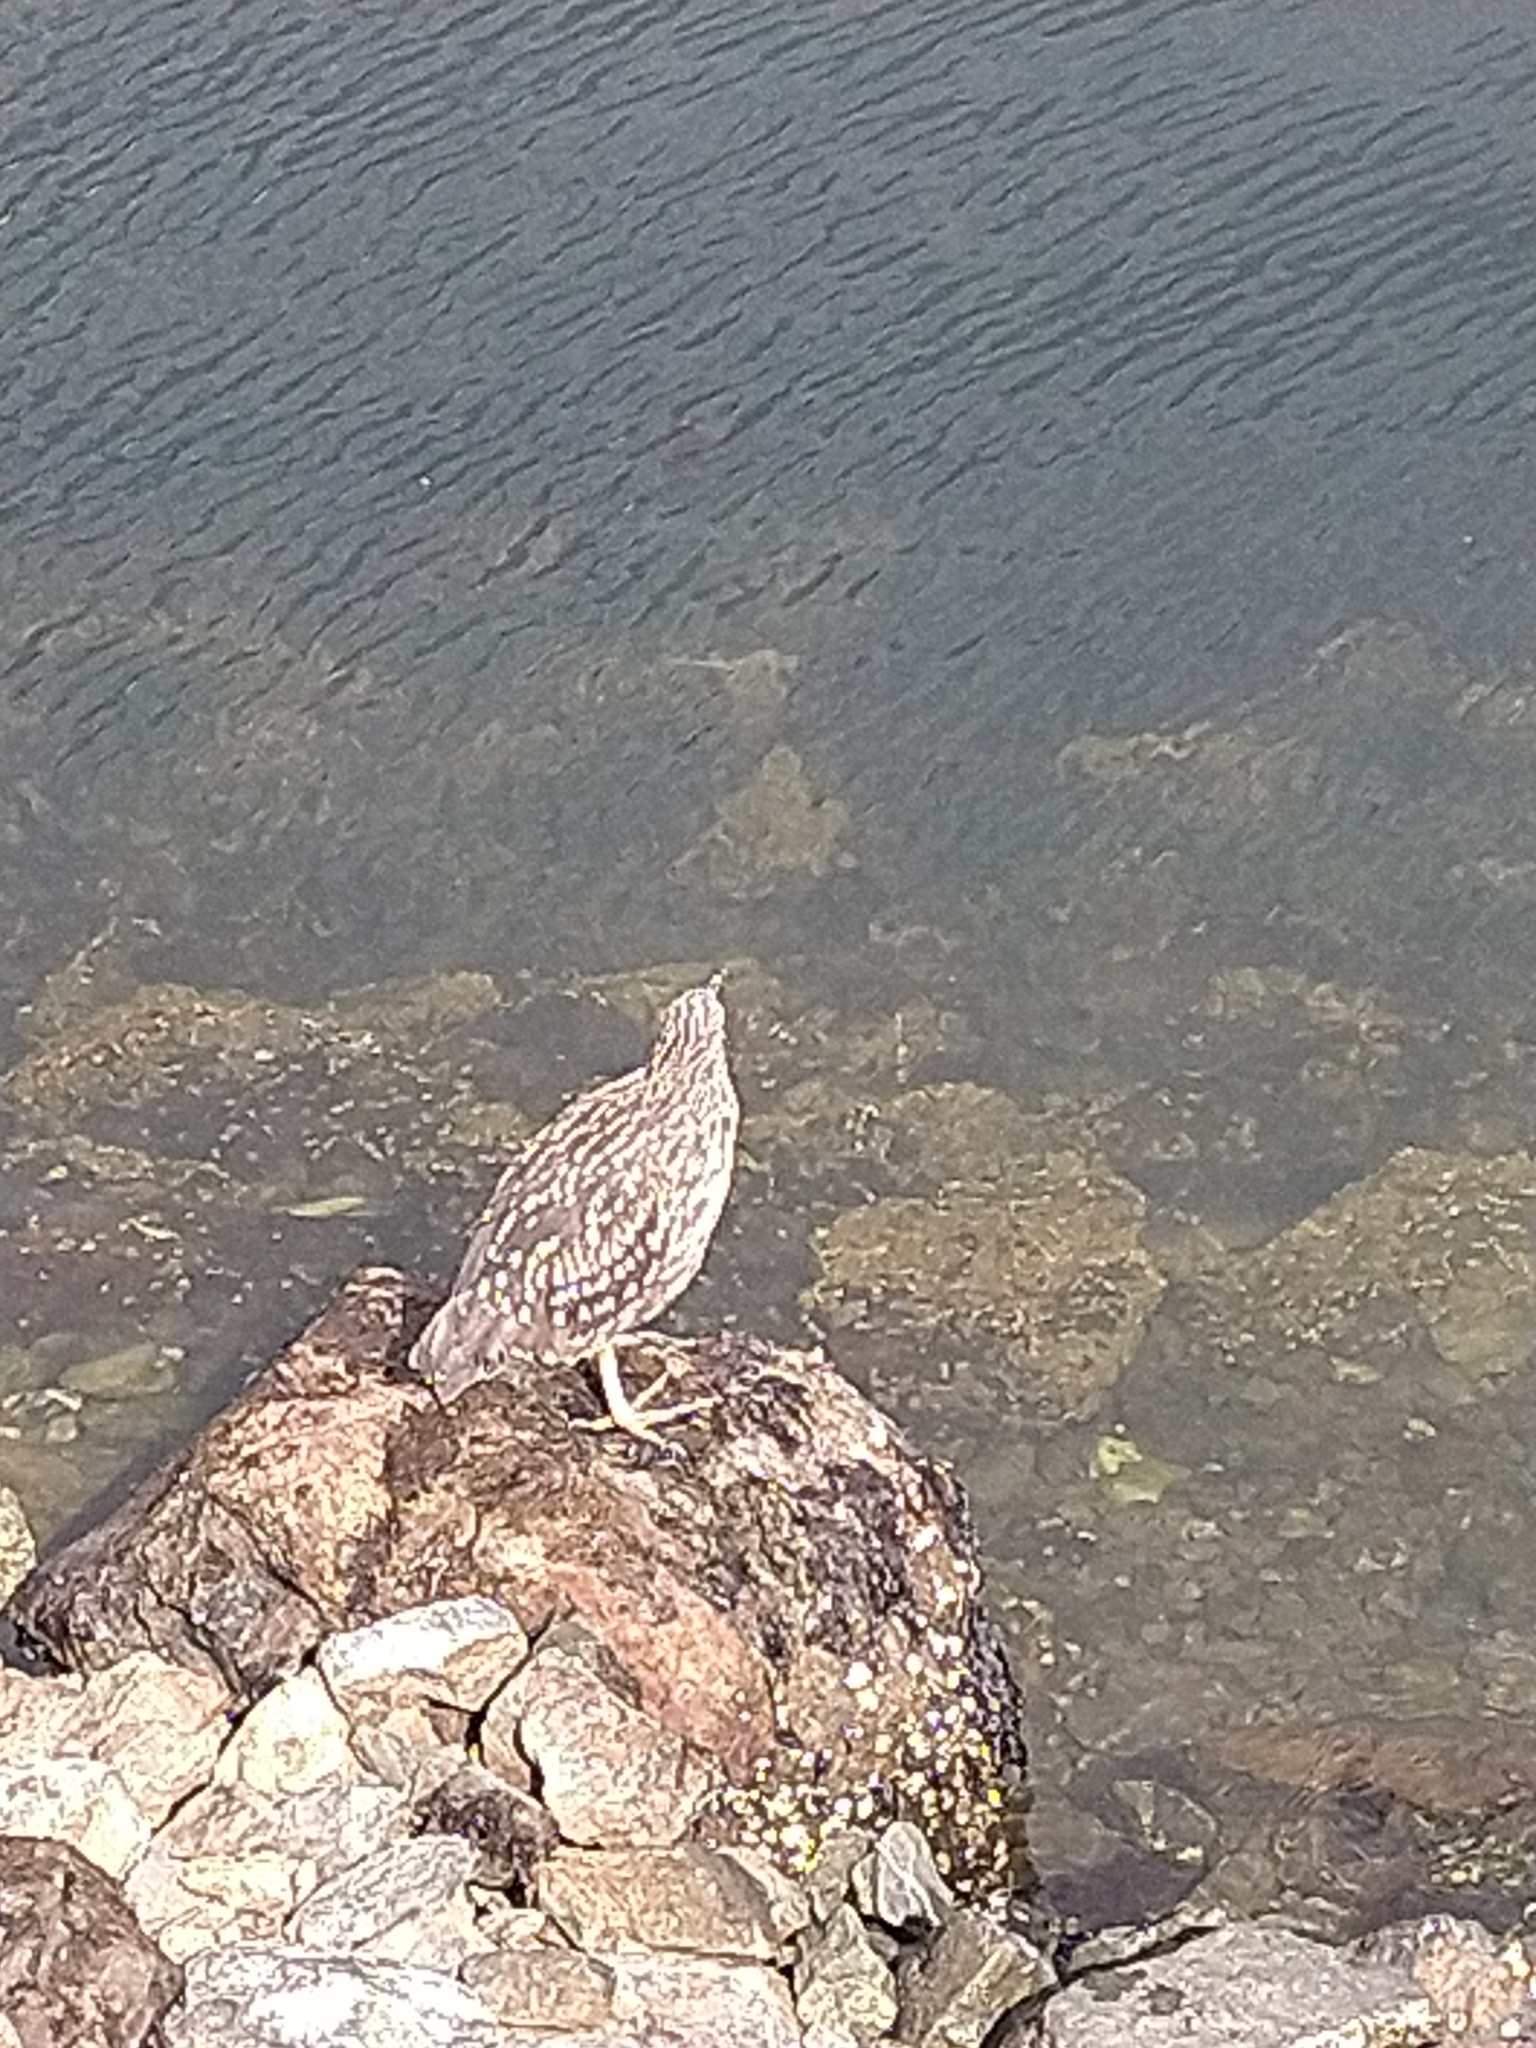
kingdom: Animalia
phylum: Chordata
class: Aves
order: Pelecaniformes
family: Ardeidae
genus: Nycticorax
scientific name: Nycticorax nycticorax
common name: Black-crowned night heron
